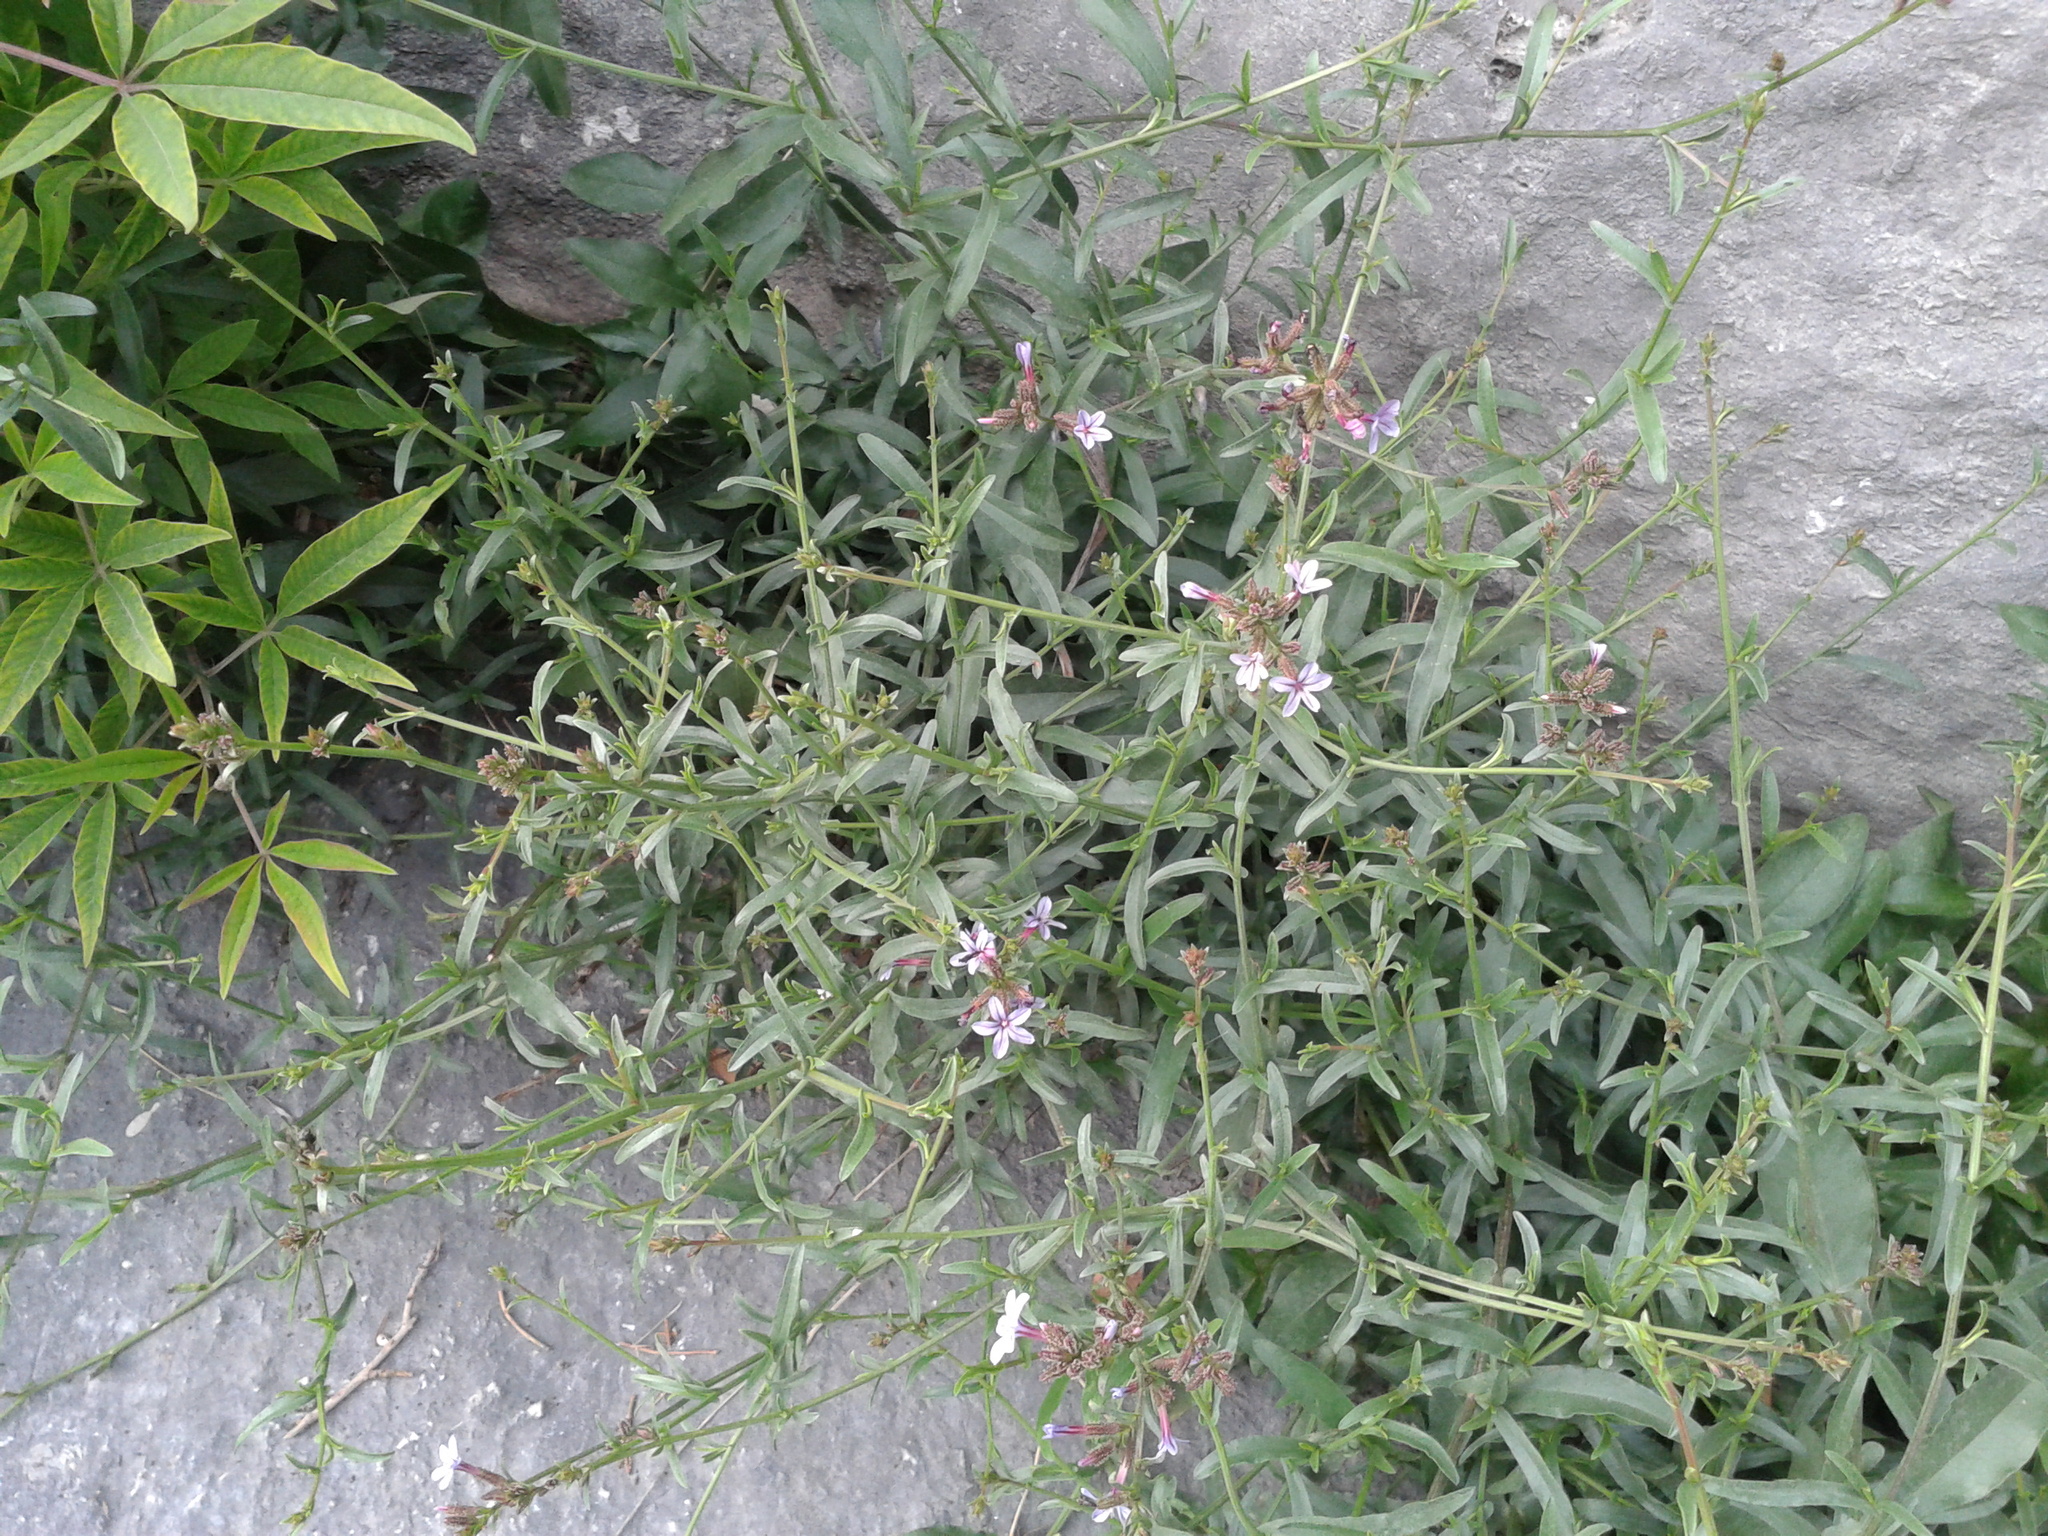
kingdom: Plantae
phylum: Tracheophyta
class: Magnoliopsida
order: Caryophyllales
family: Plumbaginaceae
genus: Plumbago
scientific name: Plumbago europaea
